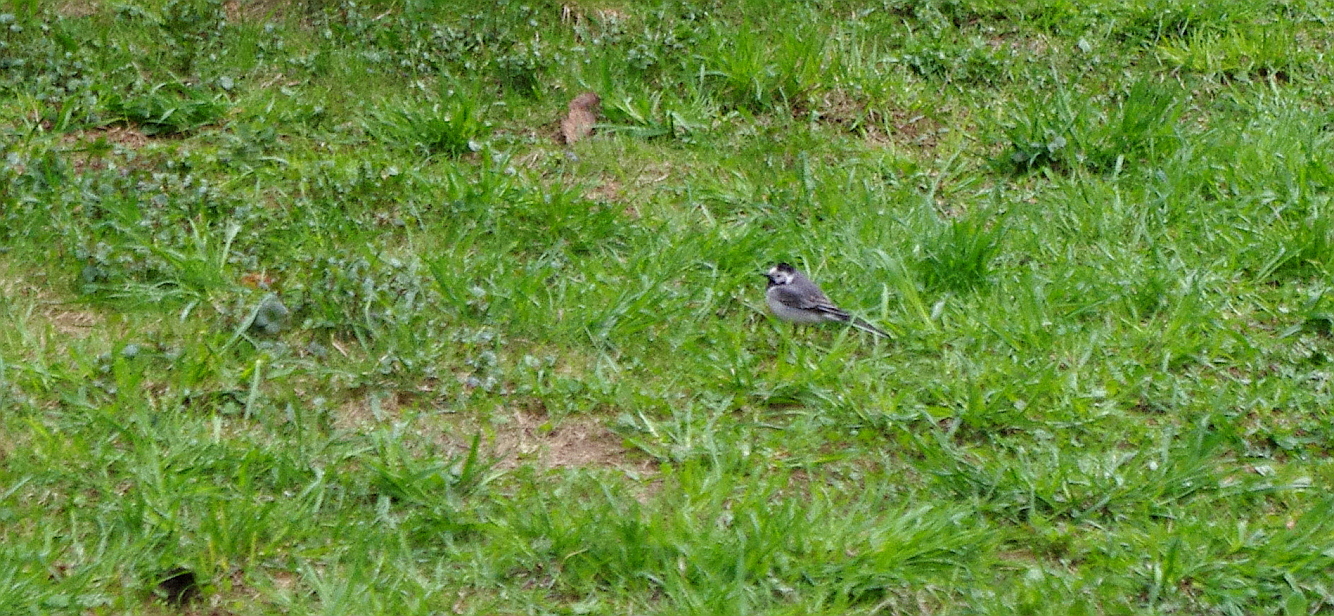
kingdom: Animalia
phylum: Chordata
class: Aves
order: Passeriformes
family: Motacillidae
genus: Motacilla
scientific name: Motacilla alba
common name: White wagtail
